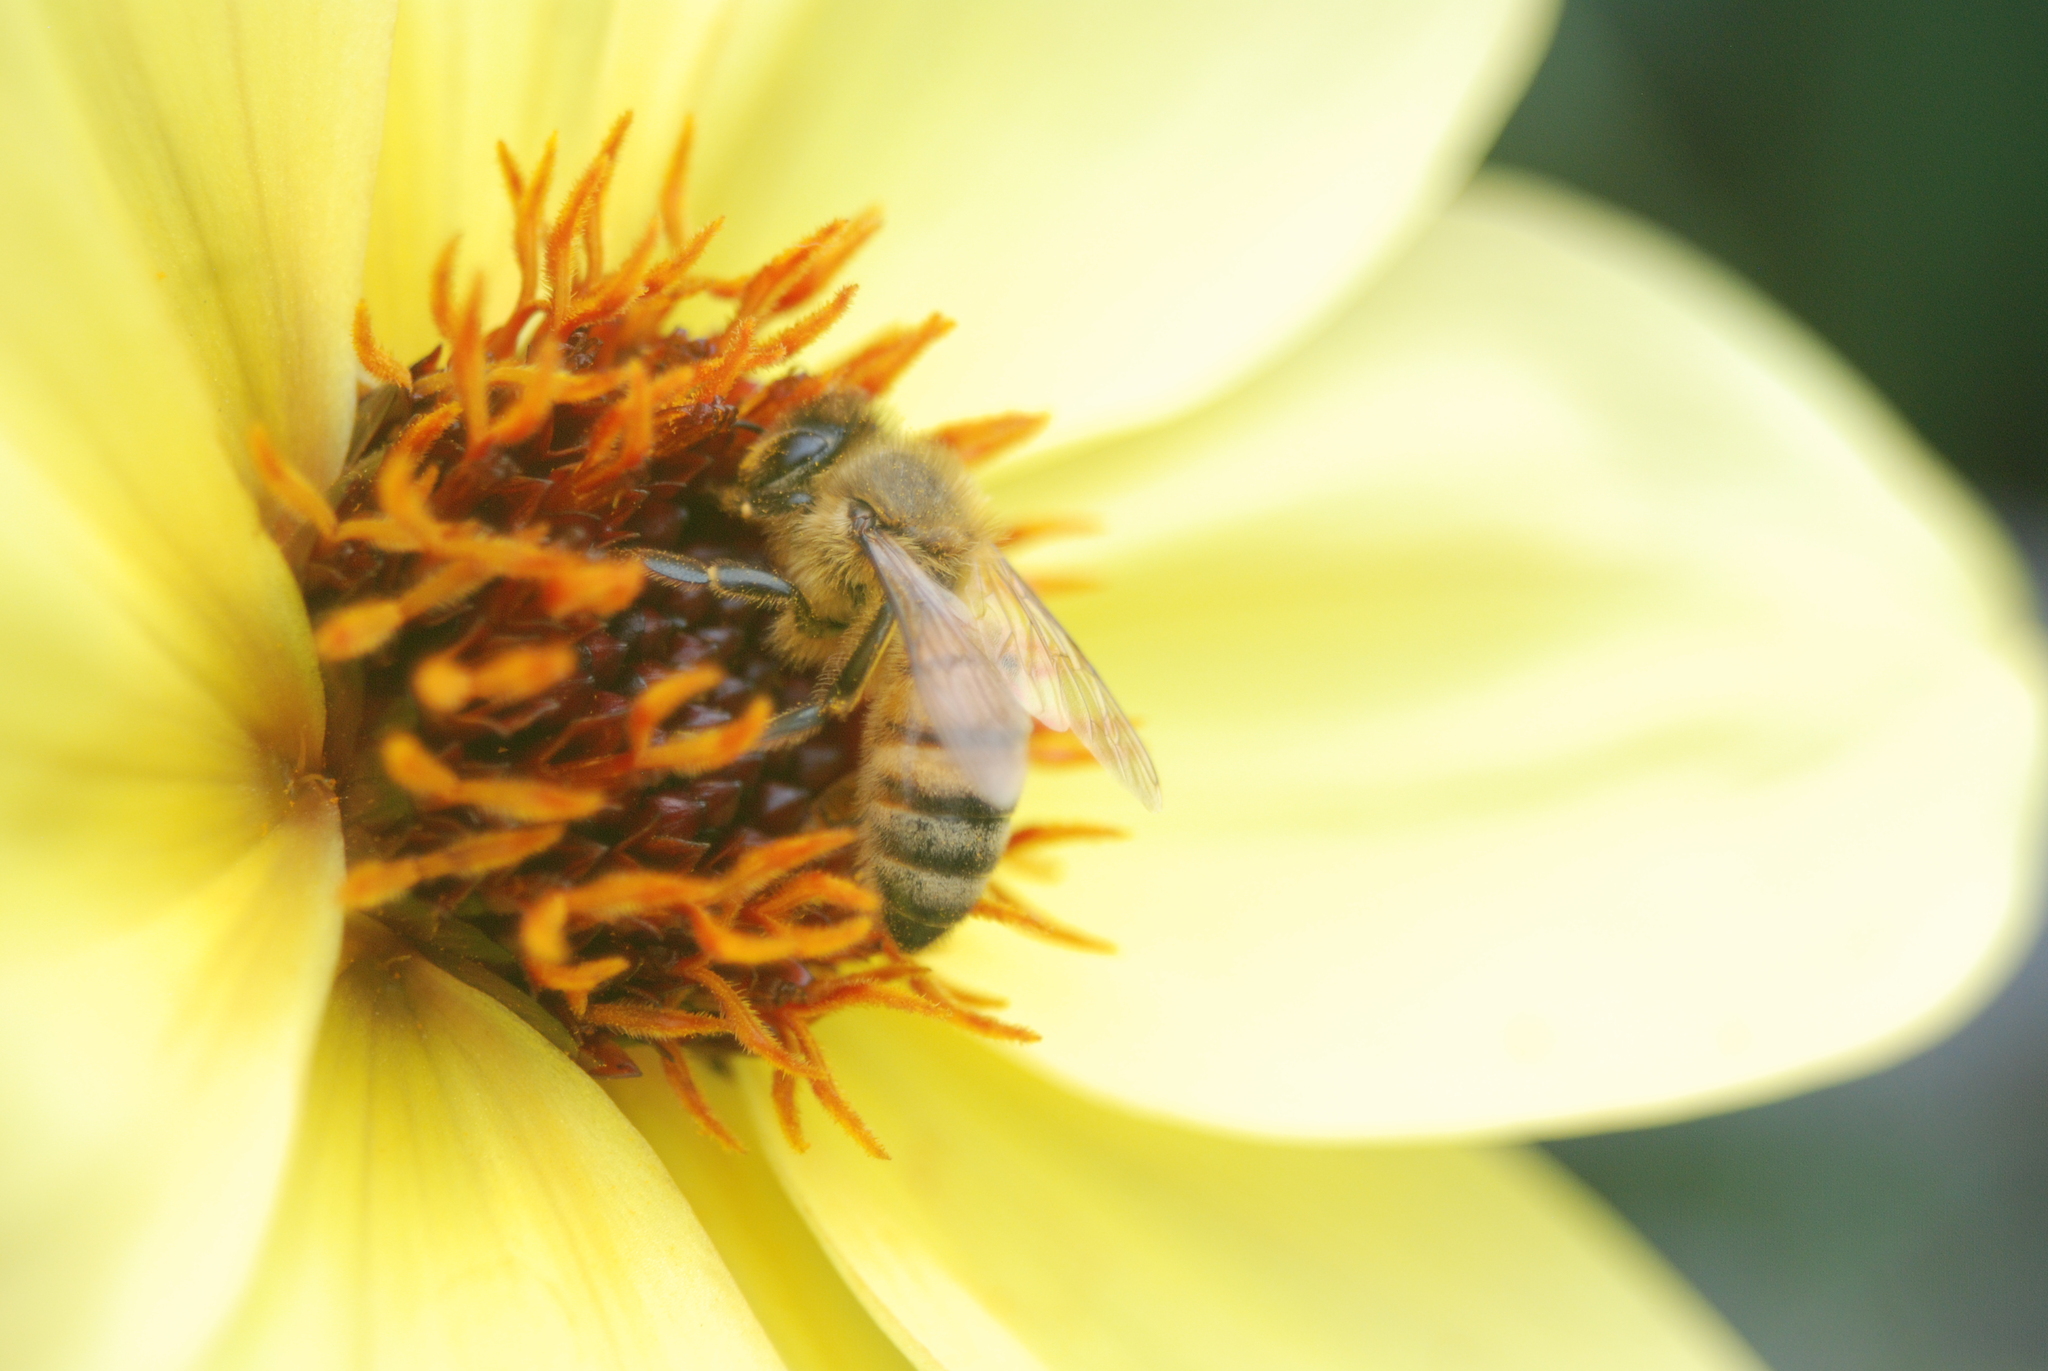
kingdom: Animalia
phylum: Arthropoda
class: Insecta
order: Hymenoptera
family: Apidae
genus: Apis
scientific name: Apis mellifera
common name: Honey bee
